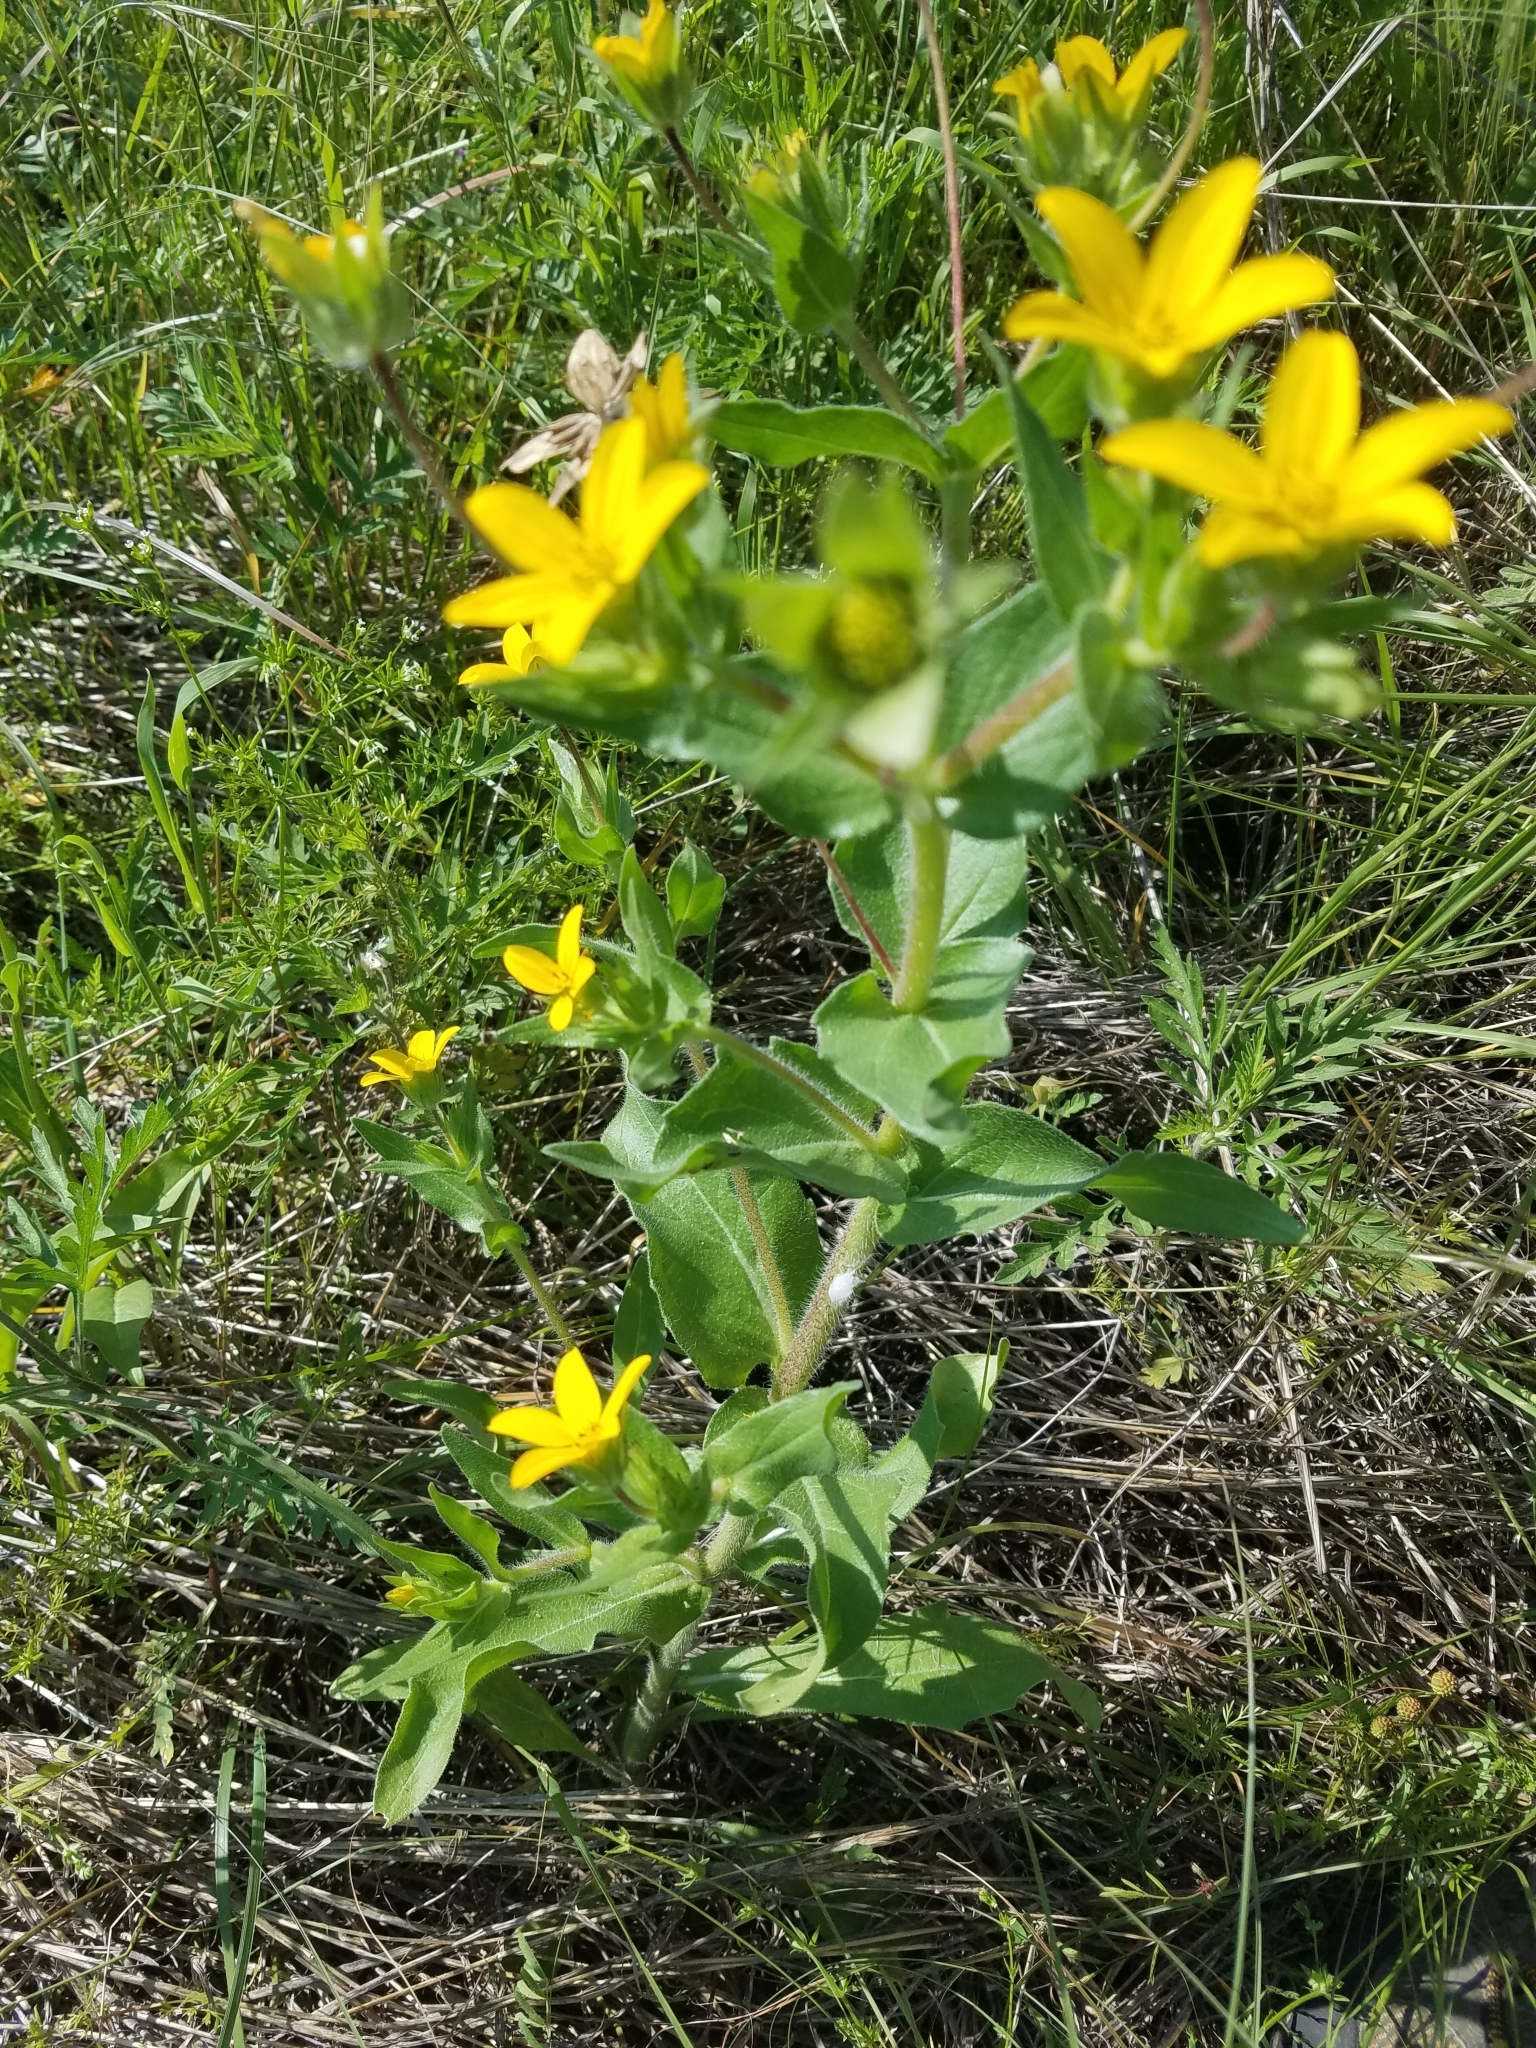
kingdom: Plantae
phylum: Tracheophyta
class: Magnoliopsida
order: Asterales
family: Asteraceae
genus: Lindheimera
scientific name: Lindheimera texana
